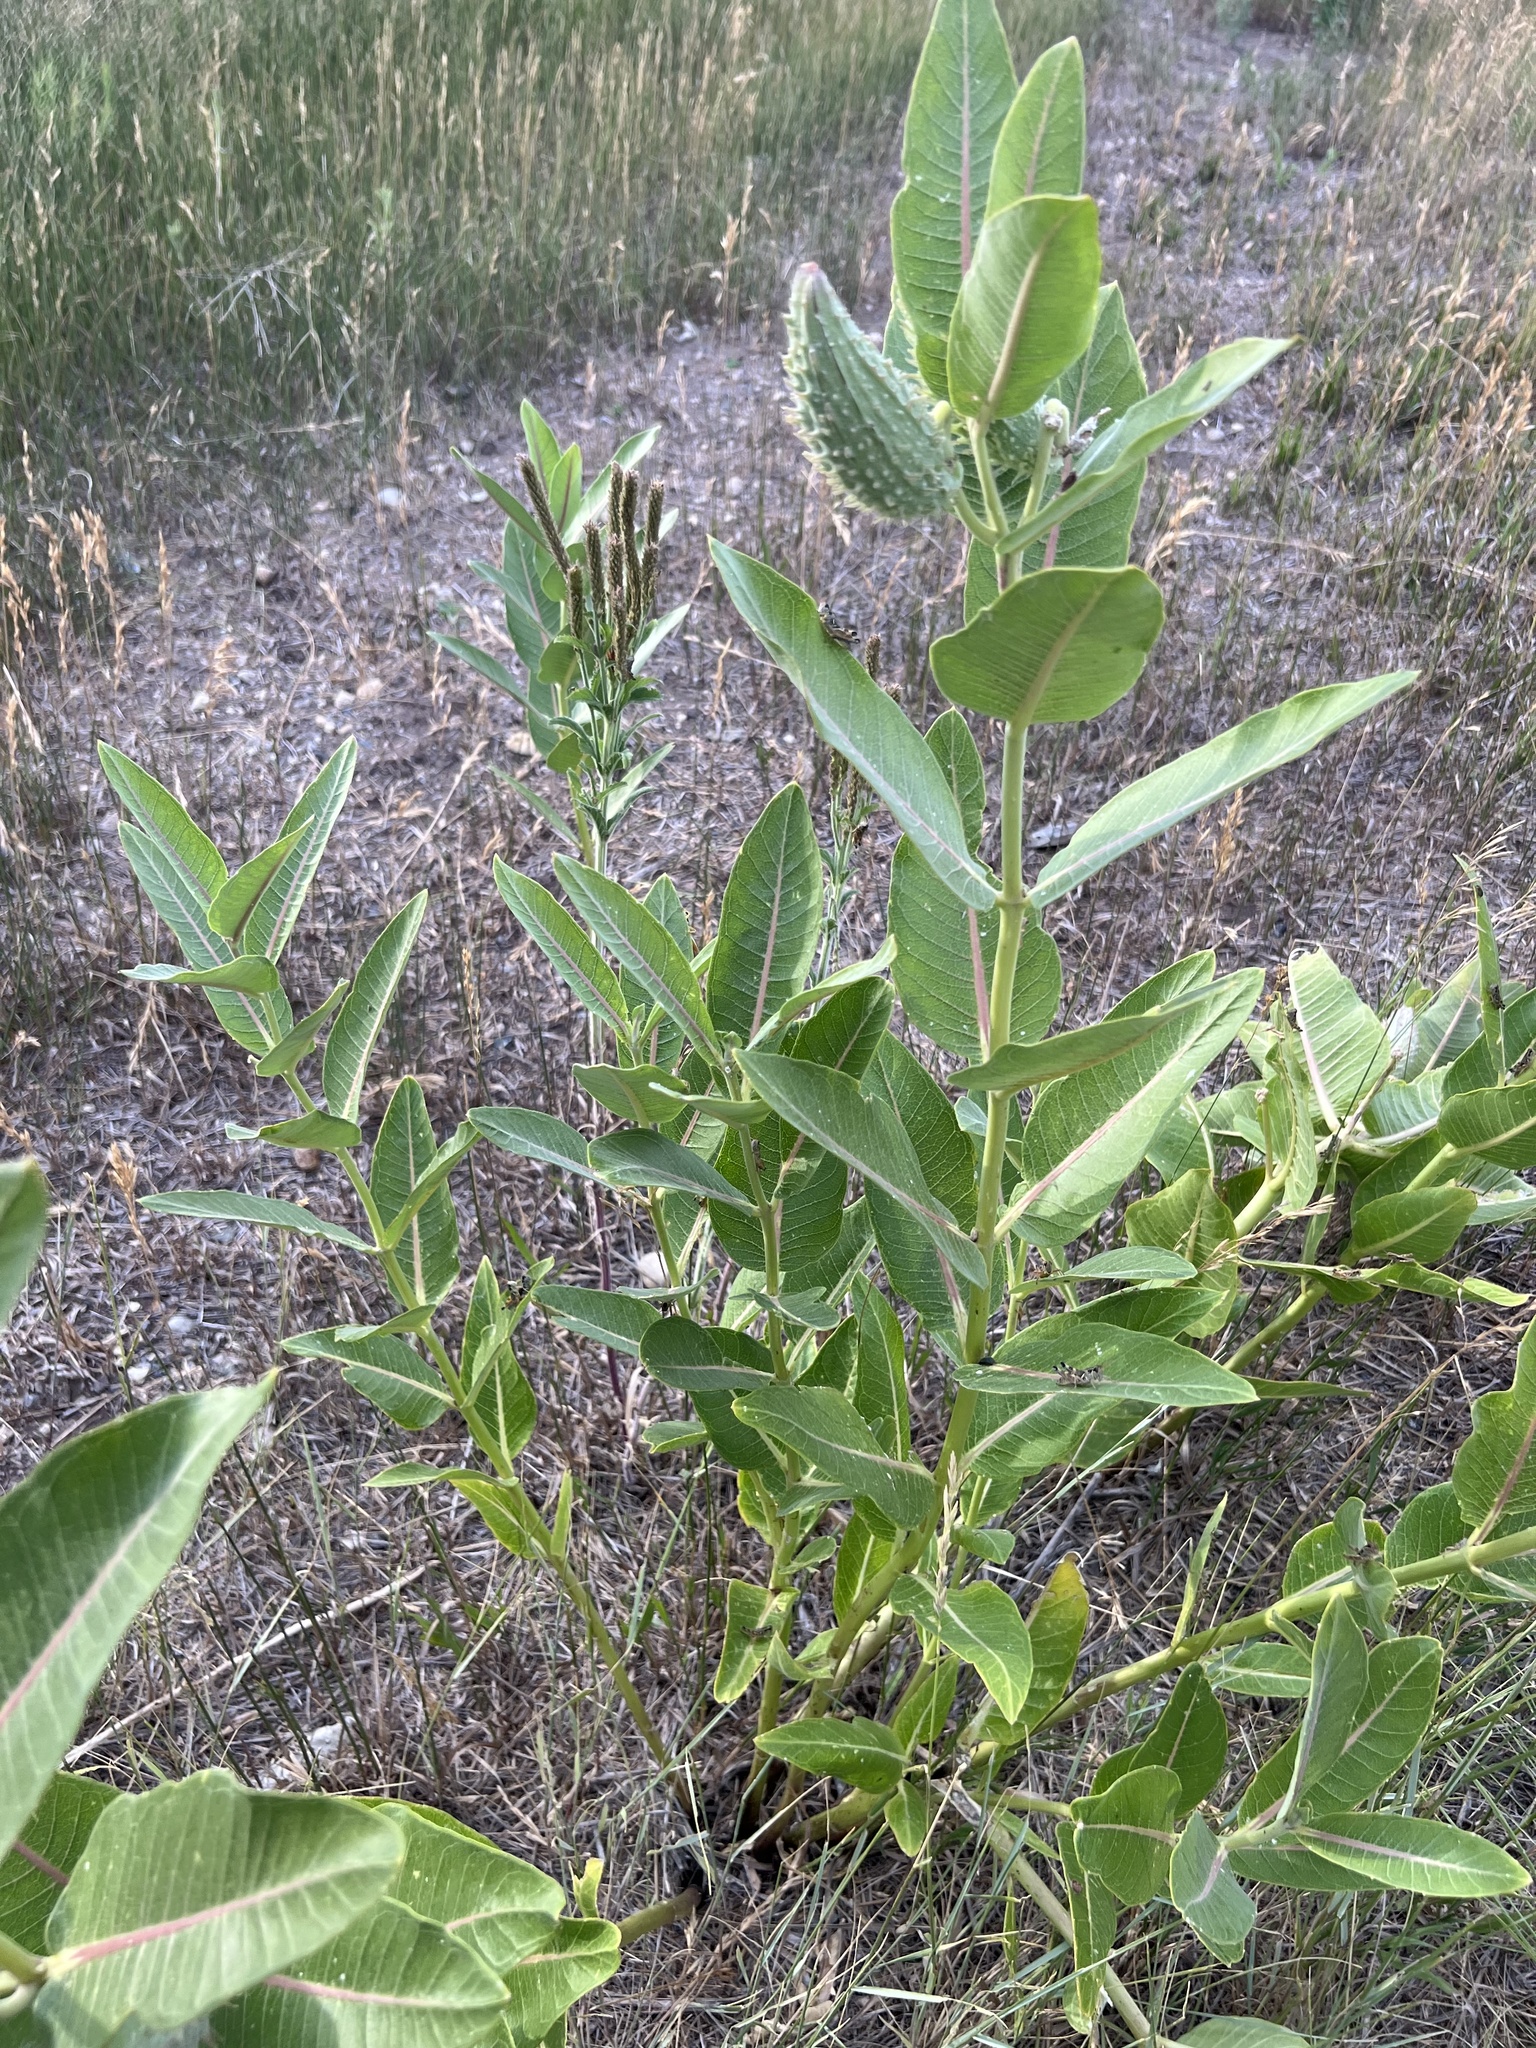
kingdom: Plantae
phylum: Tracheophyta
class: Magnoliopsida
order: Gentianales
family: Apocynaceae
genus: Asclepias
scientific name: Asclepias speciosa
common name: Showy milkweed
